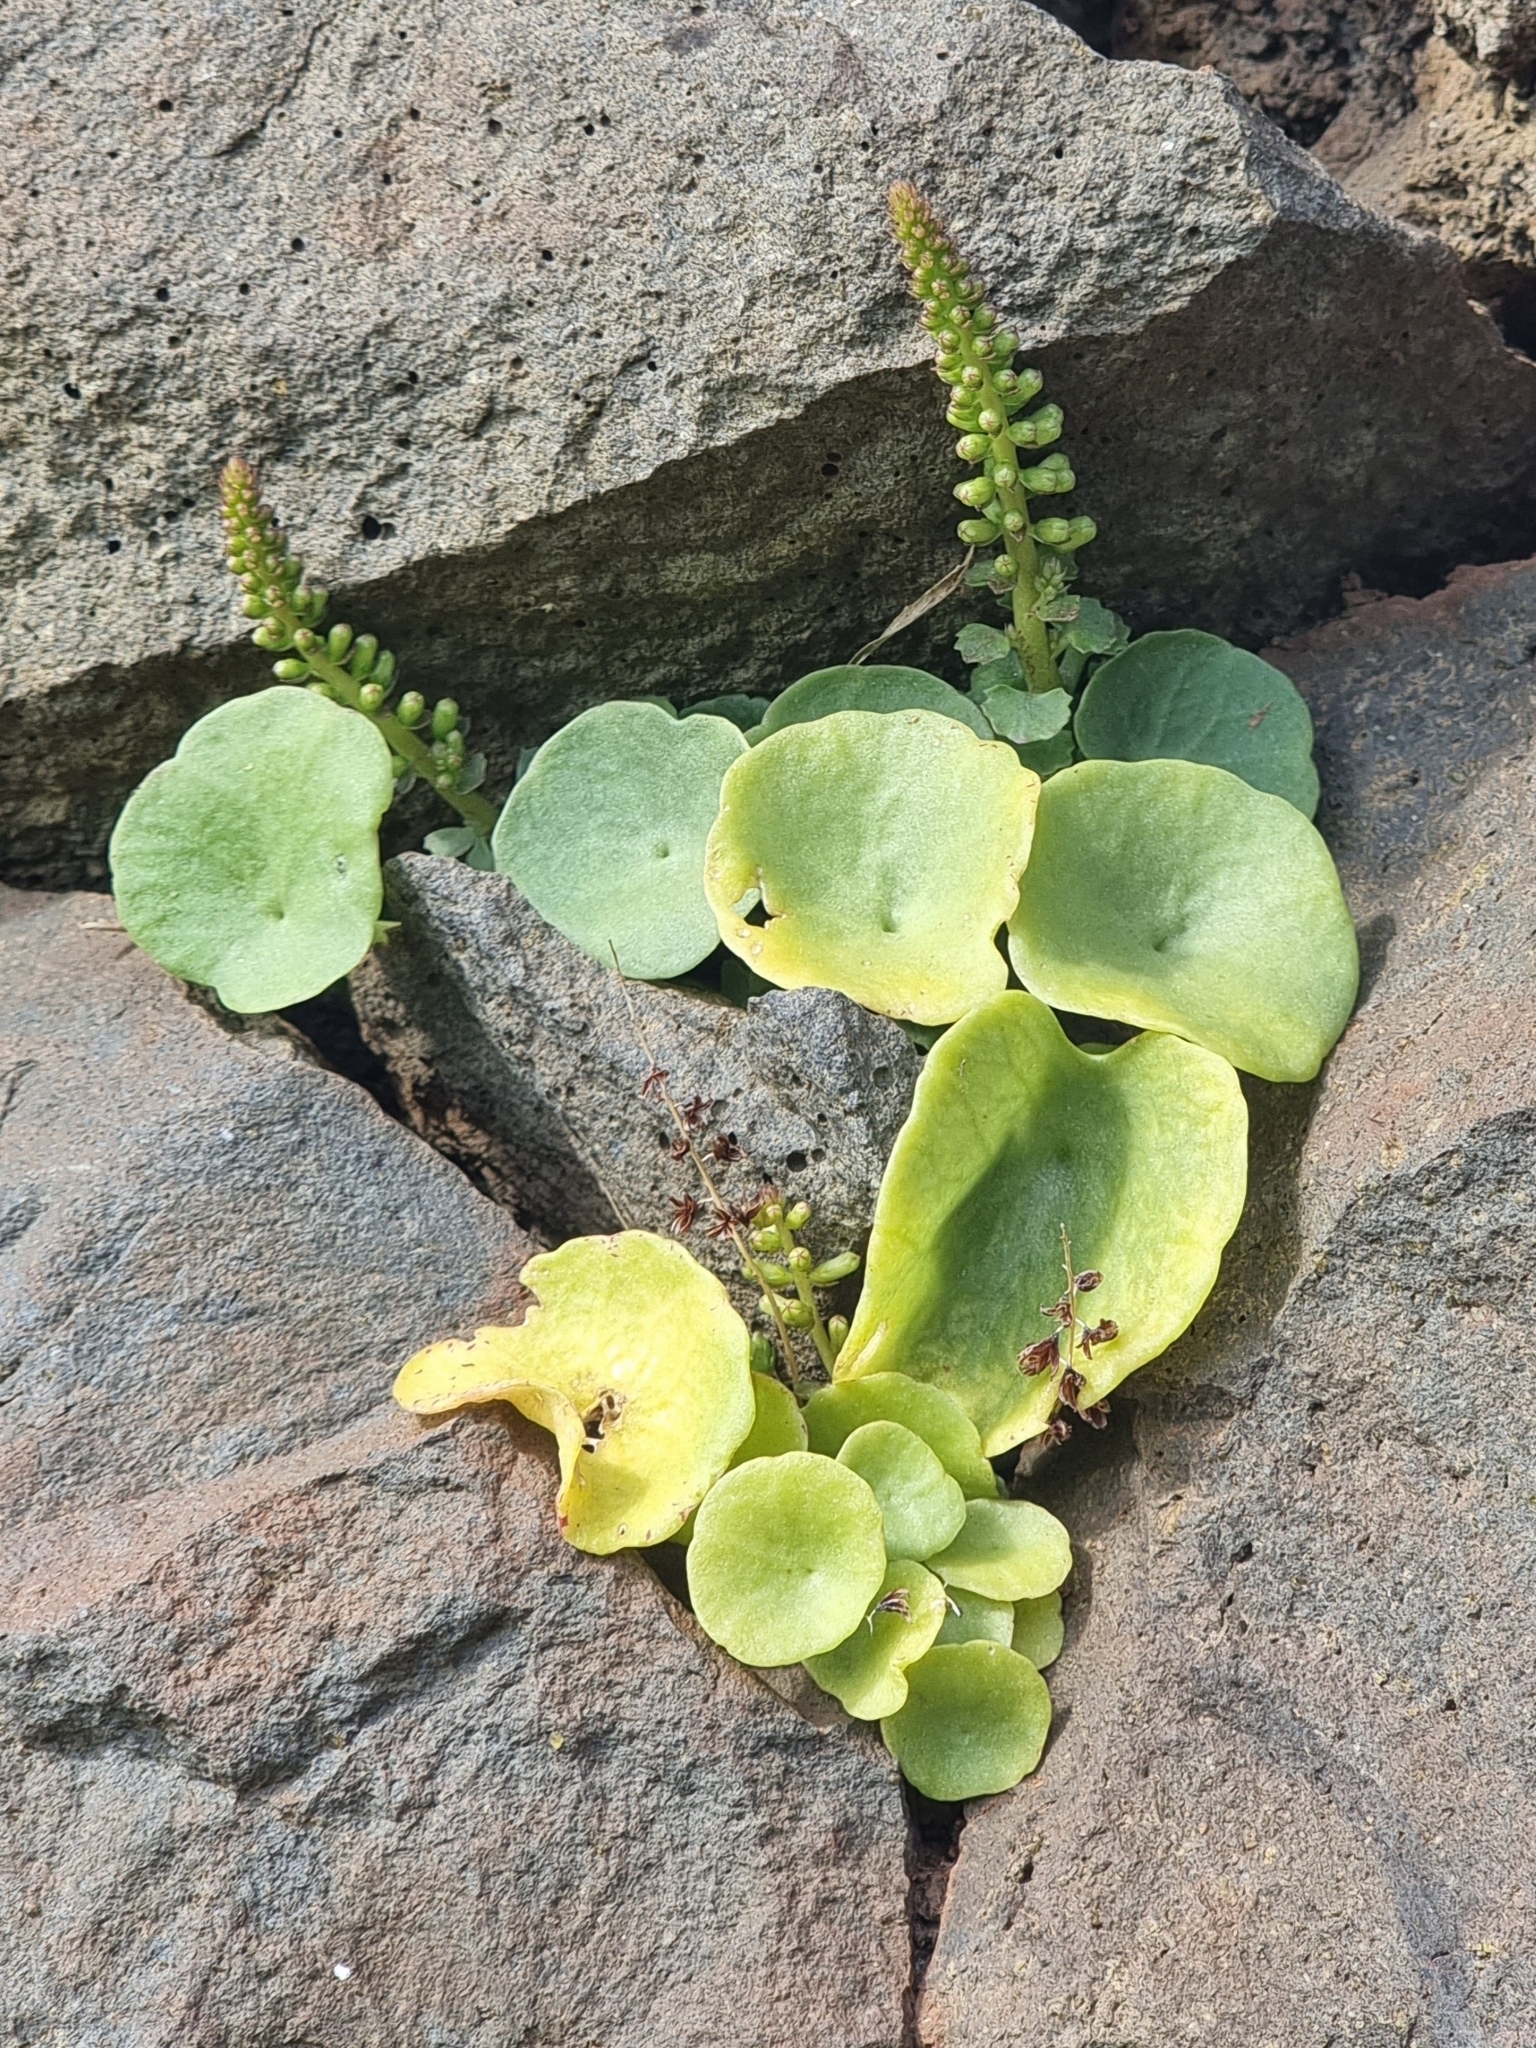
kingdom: Plantae
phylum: Tracheophyta
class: Magnoliopsida
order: Saxifragales
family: Crassulaceae
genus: Umbilicus
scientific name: Umbilicus rupestris
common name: Navelwort
